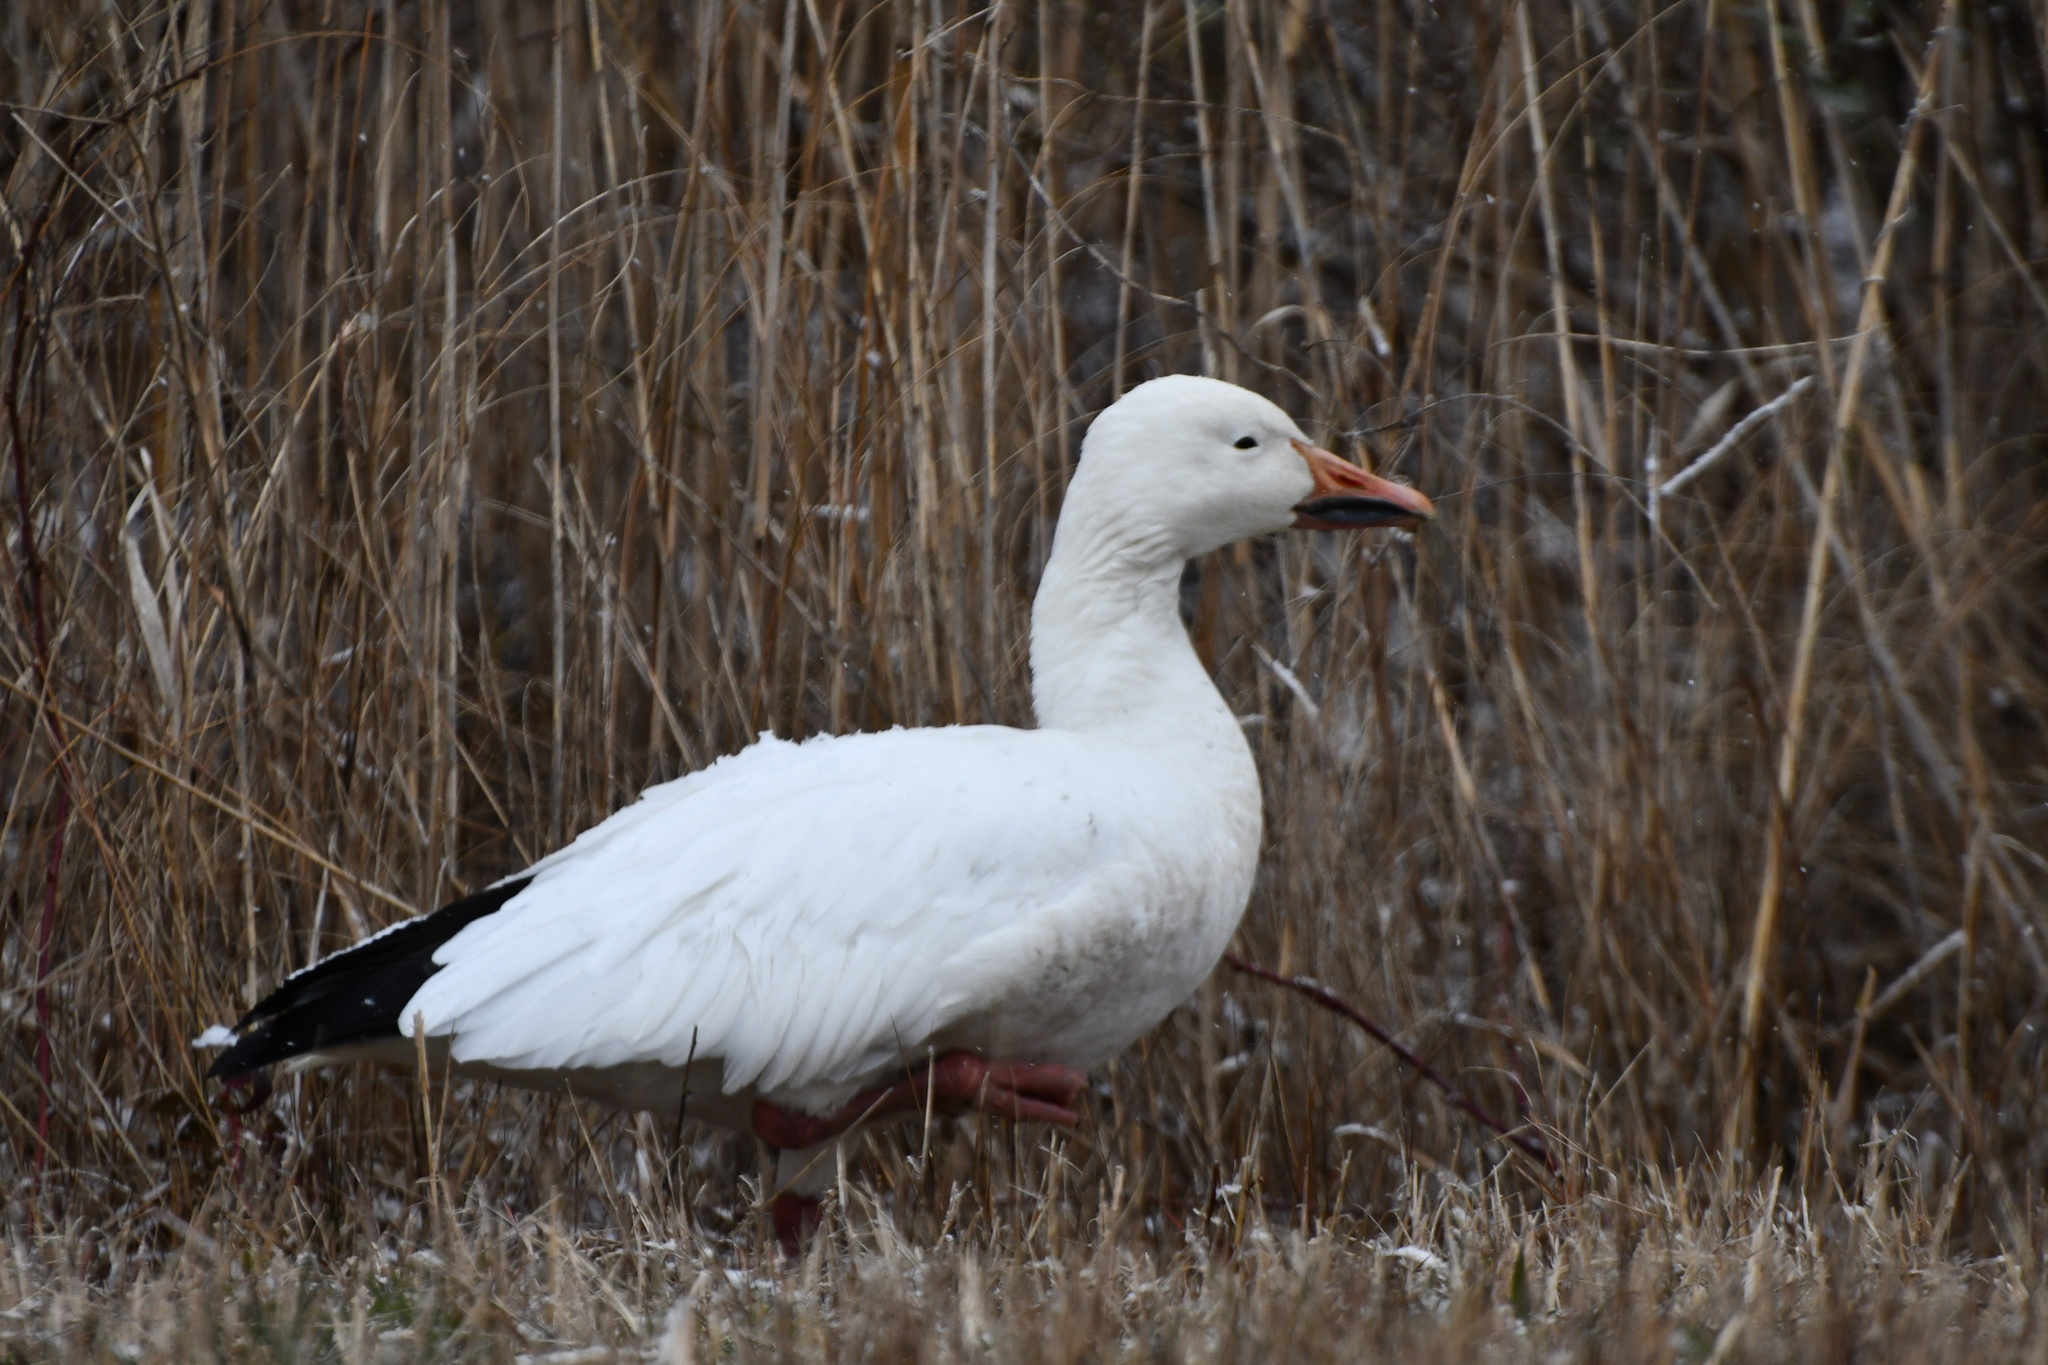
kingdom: Animalia
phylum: Chordata
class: Aves
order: Anseriformes
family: Anatidae
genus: Anser
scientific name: Anser caerulescens
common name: Snow goose
